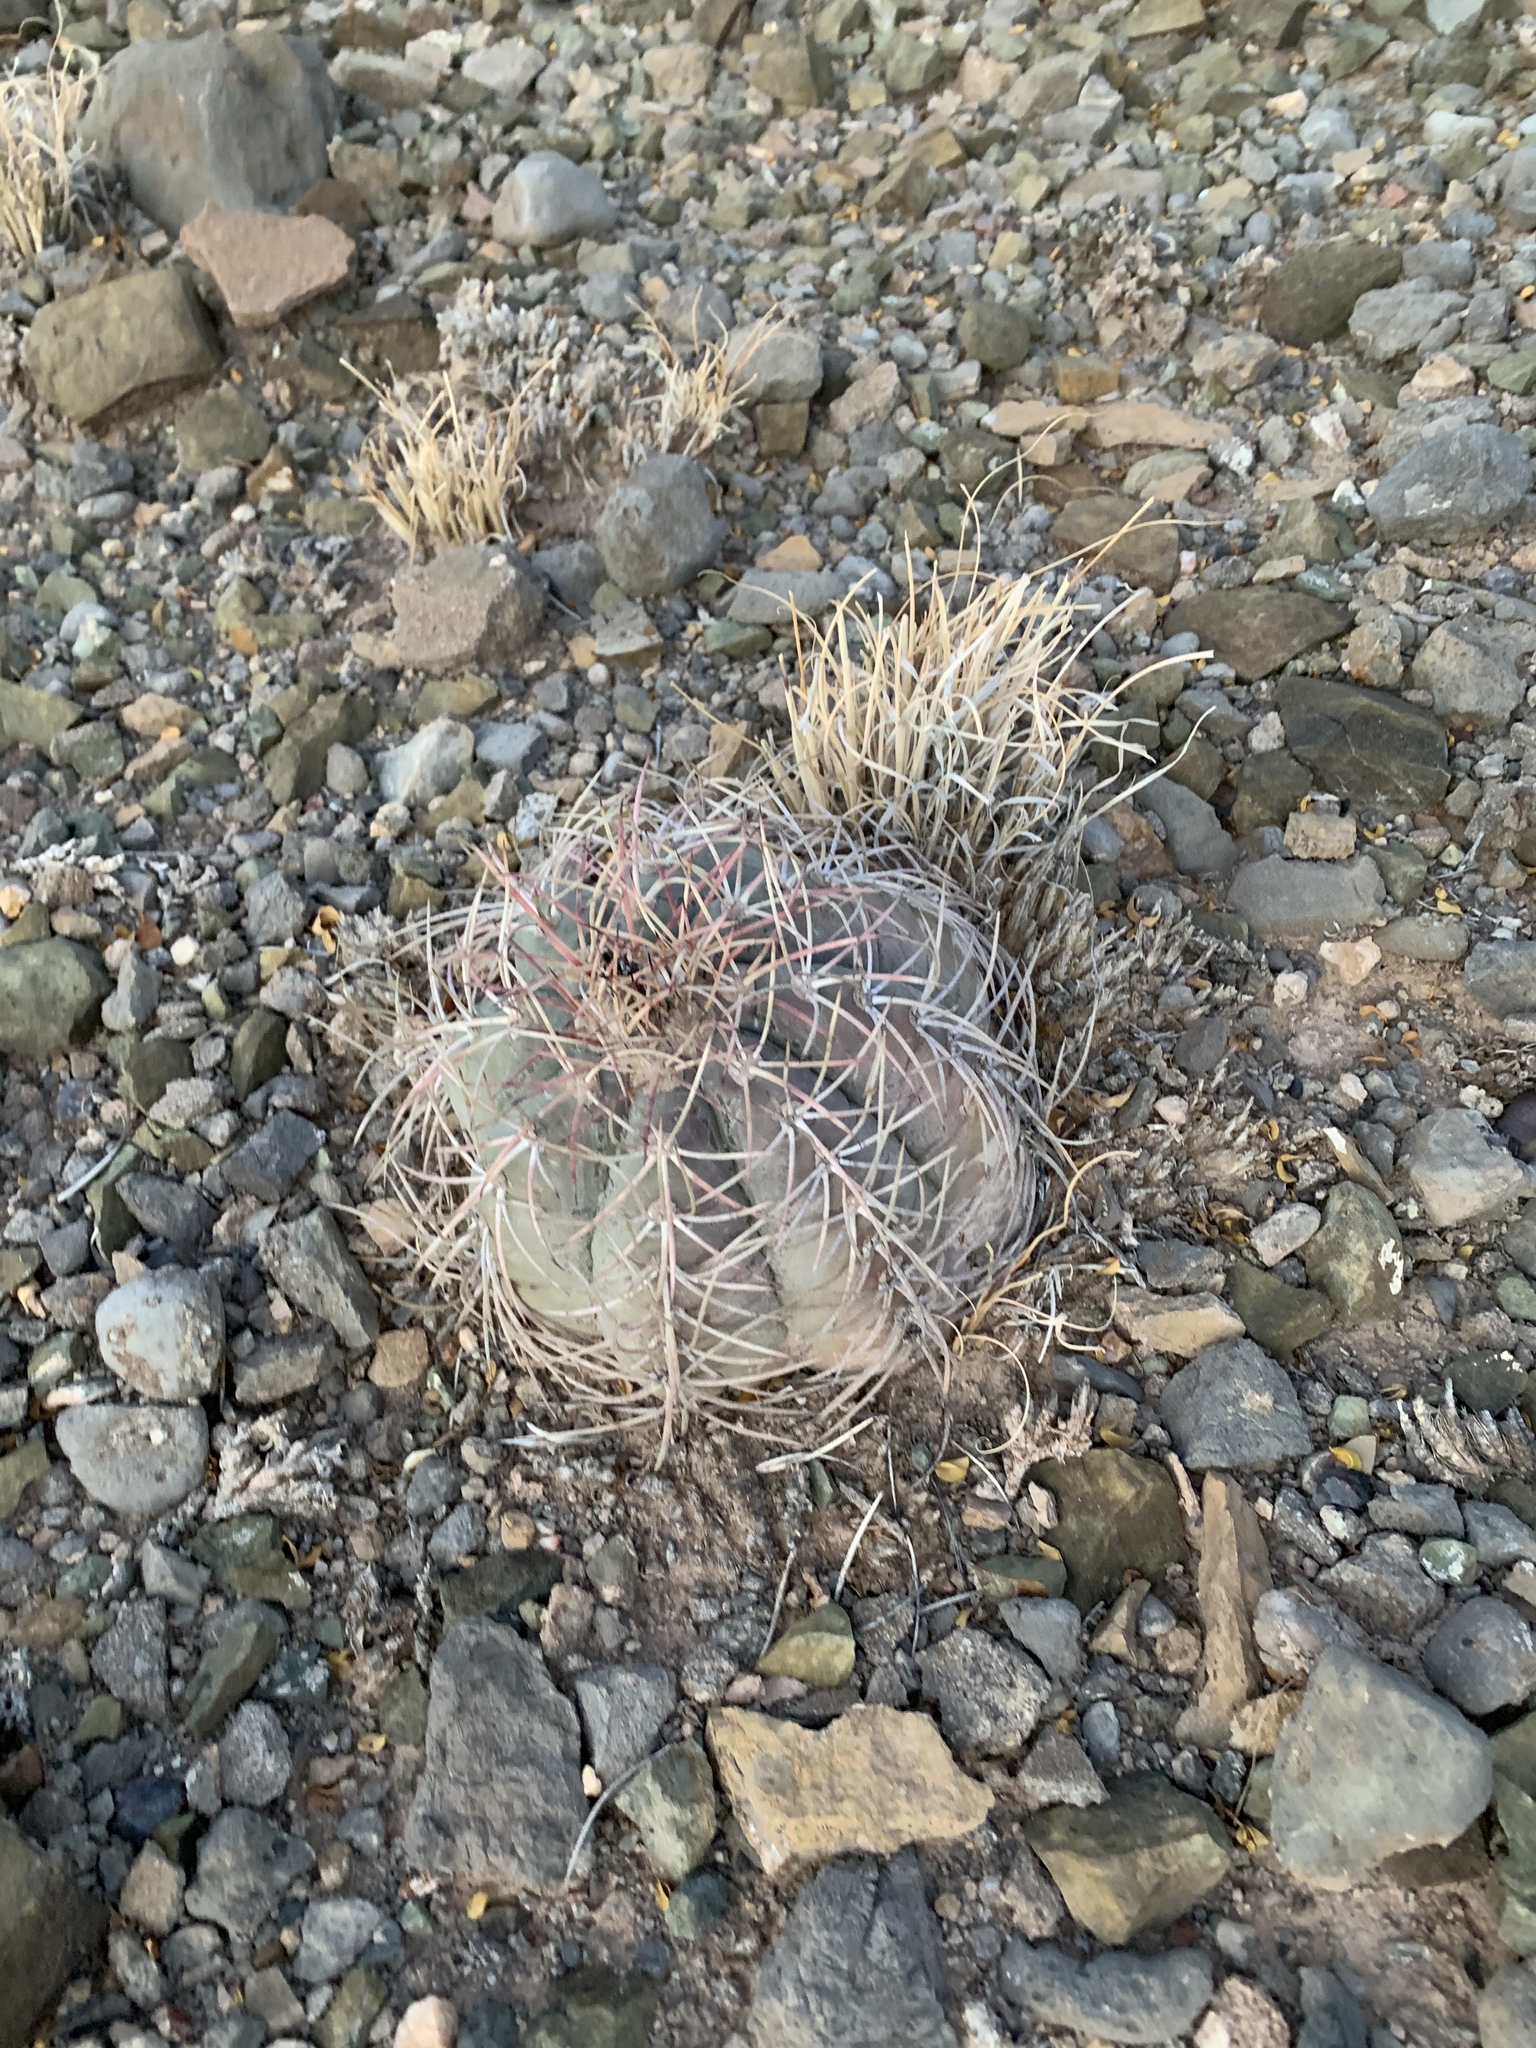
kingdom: Plantae
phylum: Tracheophyta
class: Magnoliopsida
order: Caryophyllales
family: Cactaceae
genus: Echinocactus
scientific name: Echinocactus horizonthalonius
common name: Devilshead
